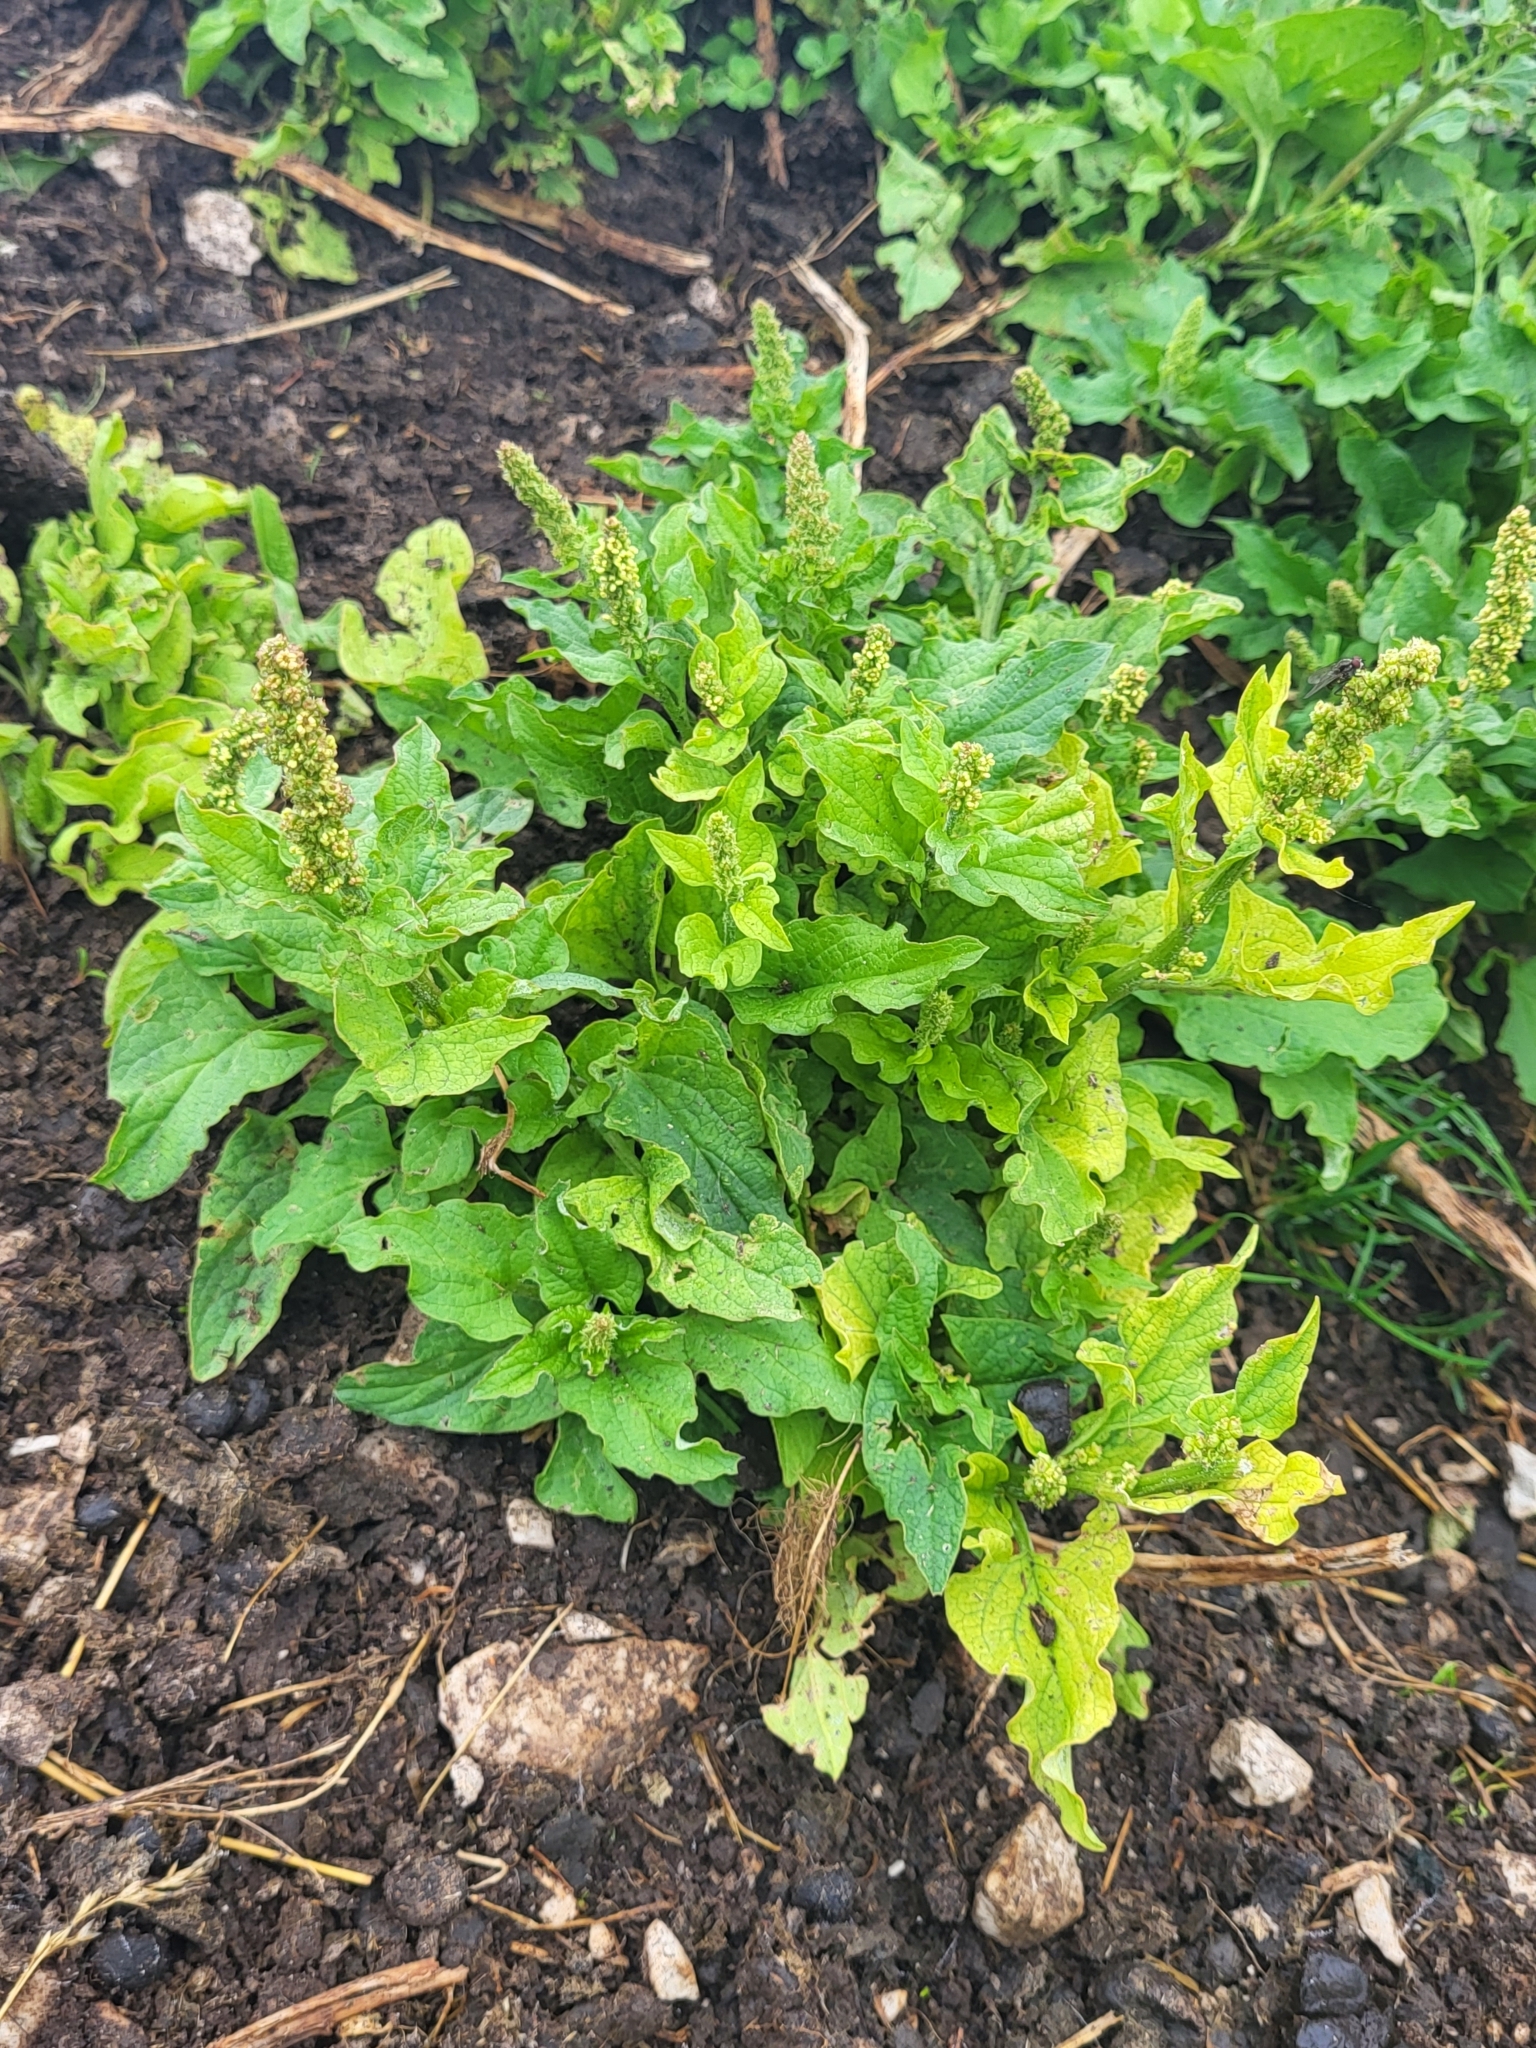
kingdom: Plantae
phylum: Tracheophyta
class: Magnoliopsida
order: Caryophyllales
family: Amaranthaceae
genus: Blitum
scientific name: Blitum bonus-henricus
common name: Good king henry
